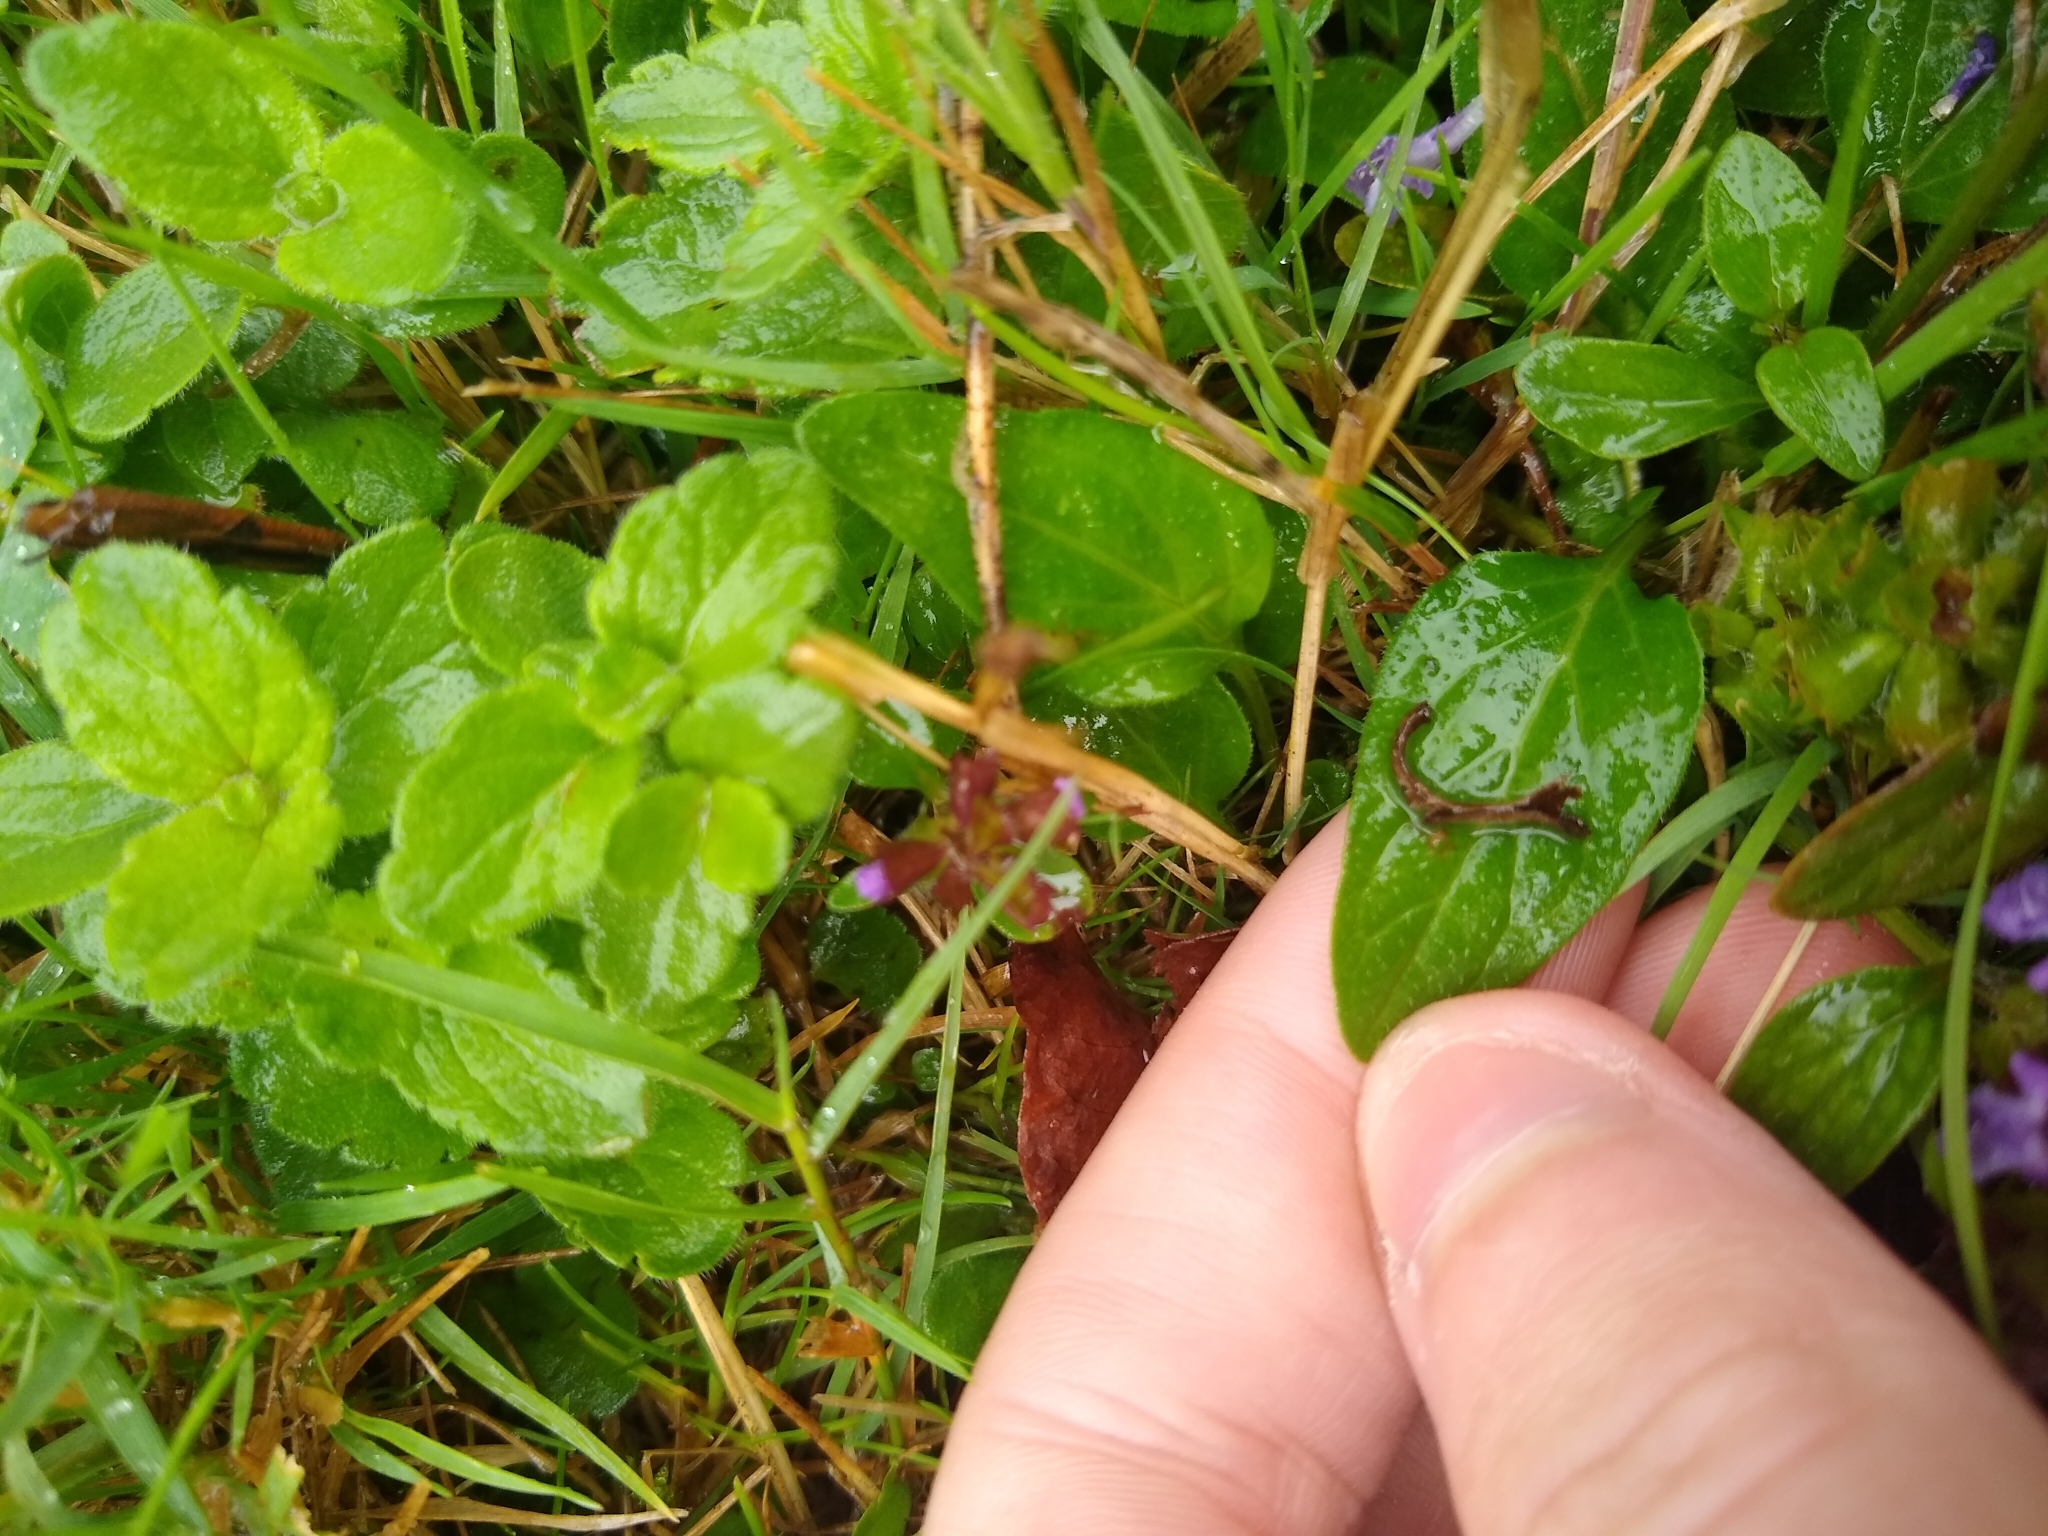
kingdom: Plantae
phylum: Tracheophyta
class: Magnoliopsida
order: Lamiales
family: Lamiaceae
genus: Prunella
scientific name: Prunella vulgaris
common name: Heal-all
